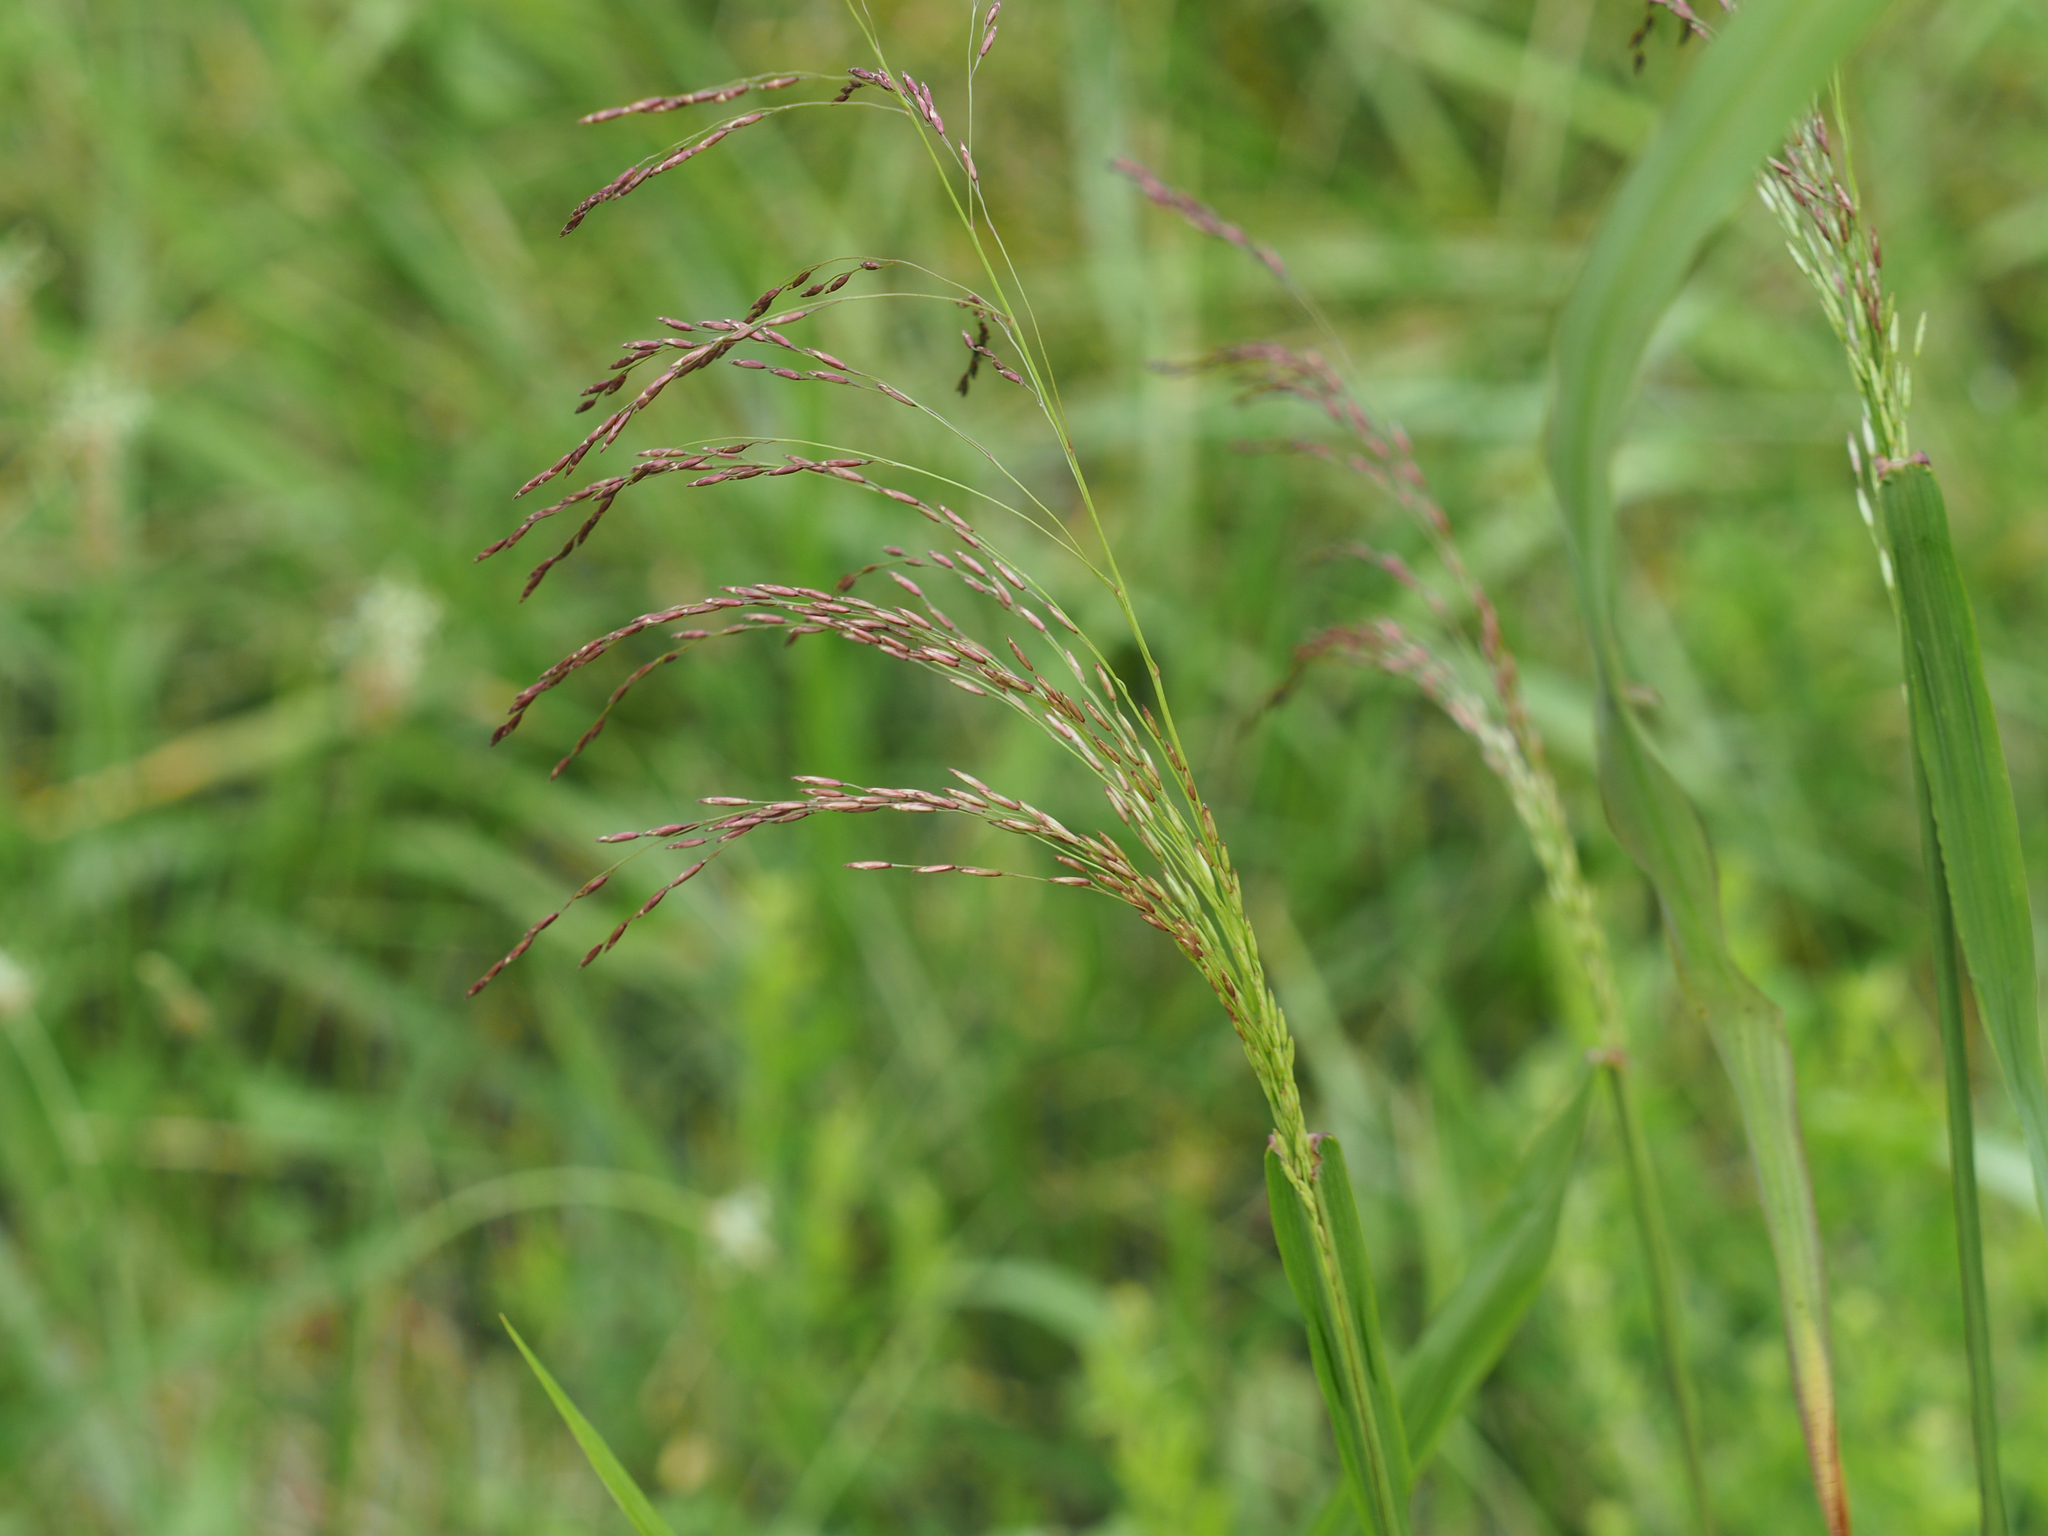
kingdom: Plantae
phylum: Tracheophyta
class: Liliopsida
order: Poales
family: Poaceae
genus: Tridens
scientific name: Tridens flavus
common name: Purpletop
